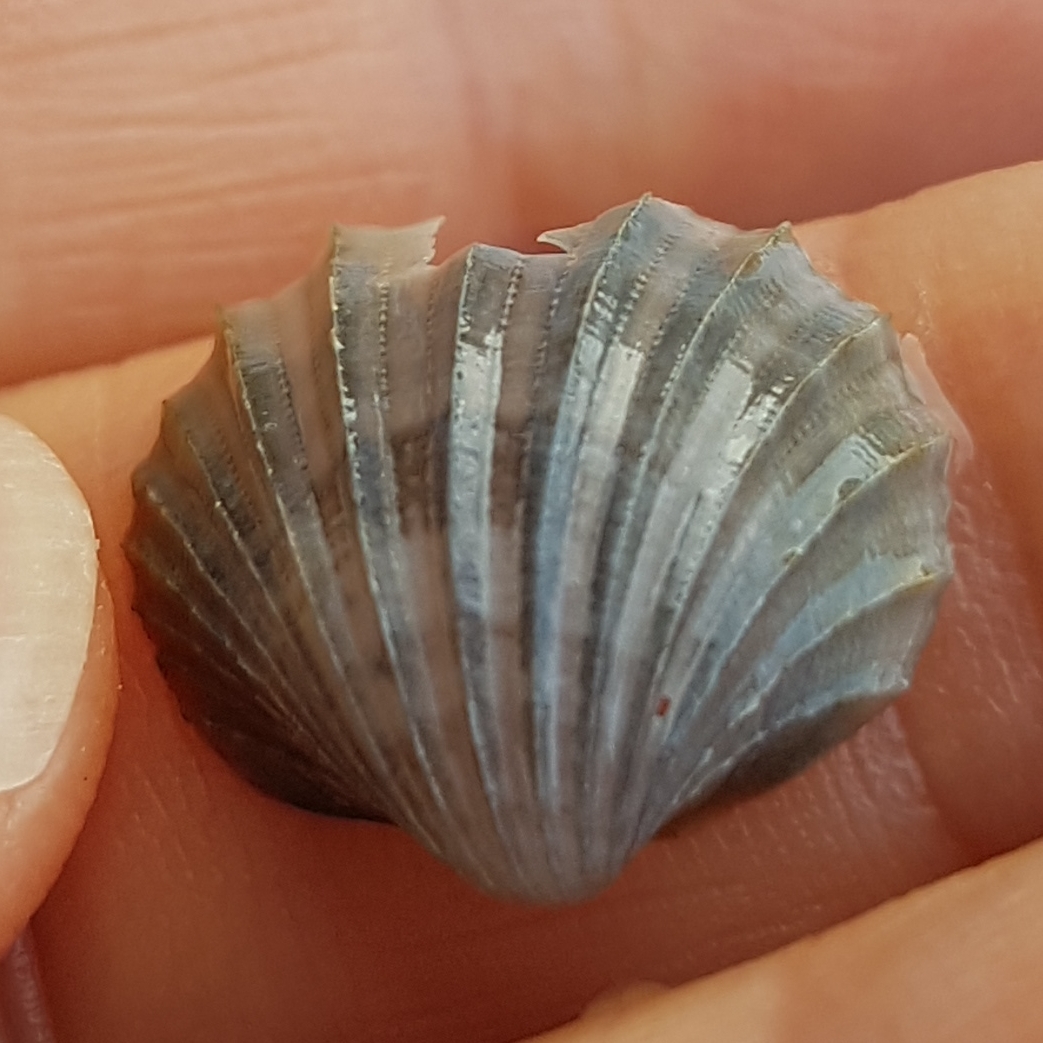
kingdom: Animalia
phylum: Mollusca
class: Bivalvia
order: Cardiida
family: Cardiidae
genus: Acanthocardia
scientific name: Acanthocardia paucicostata
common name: Poorly ribbed cockle
